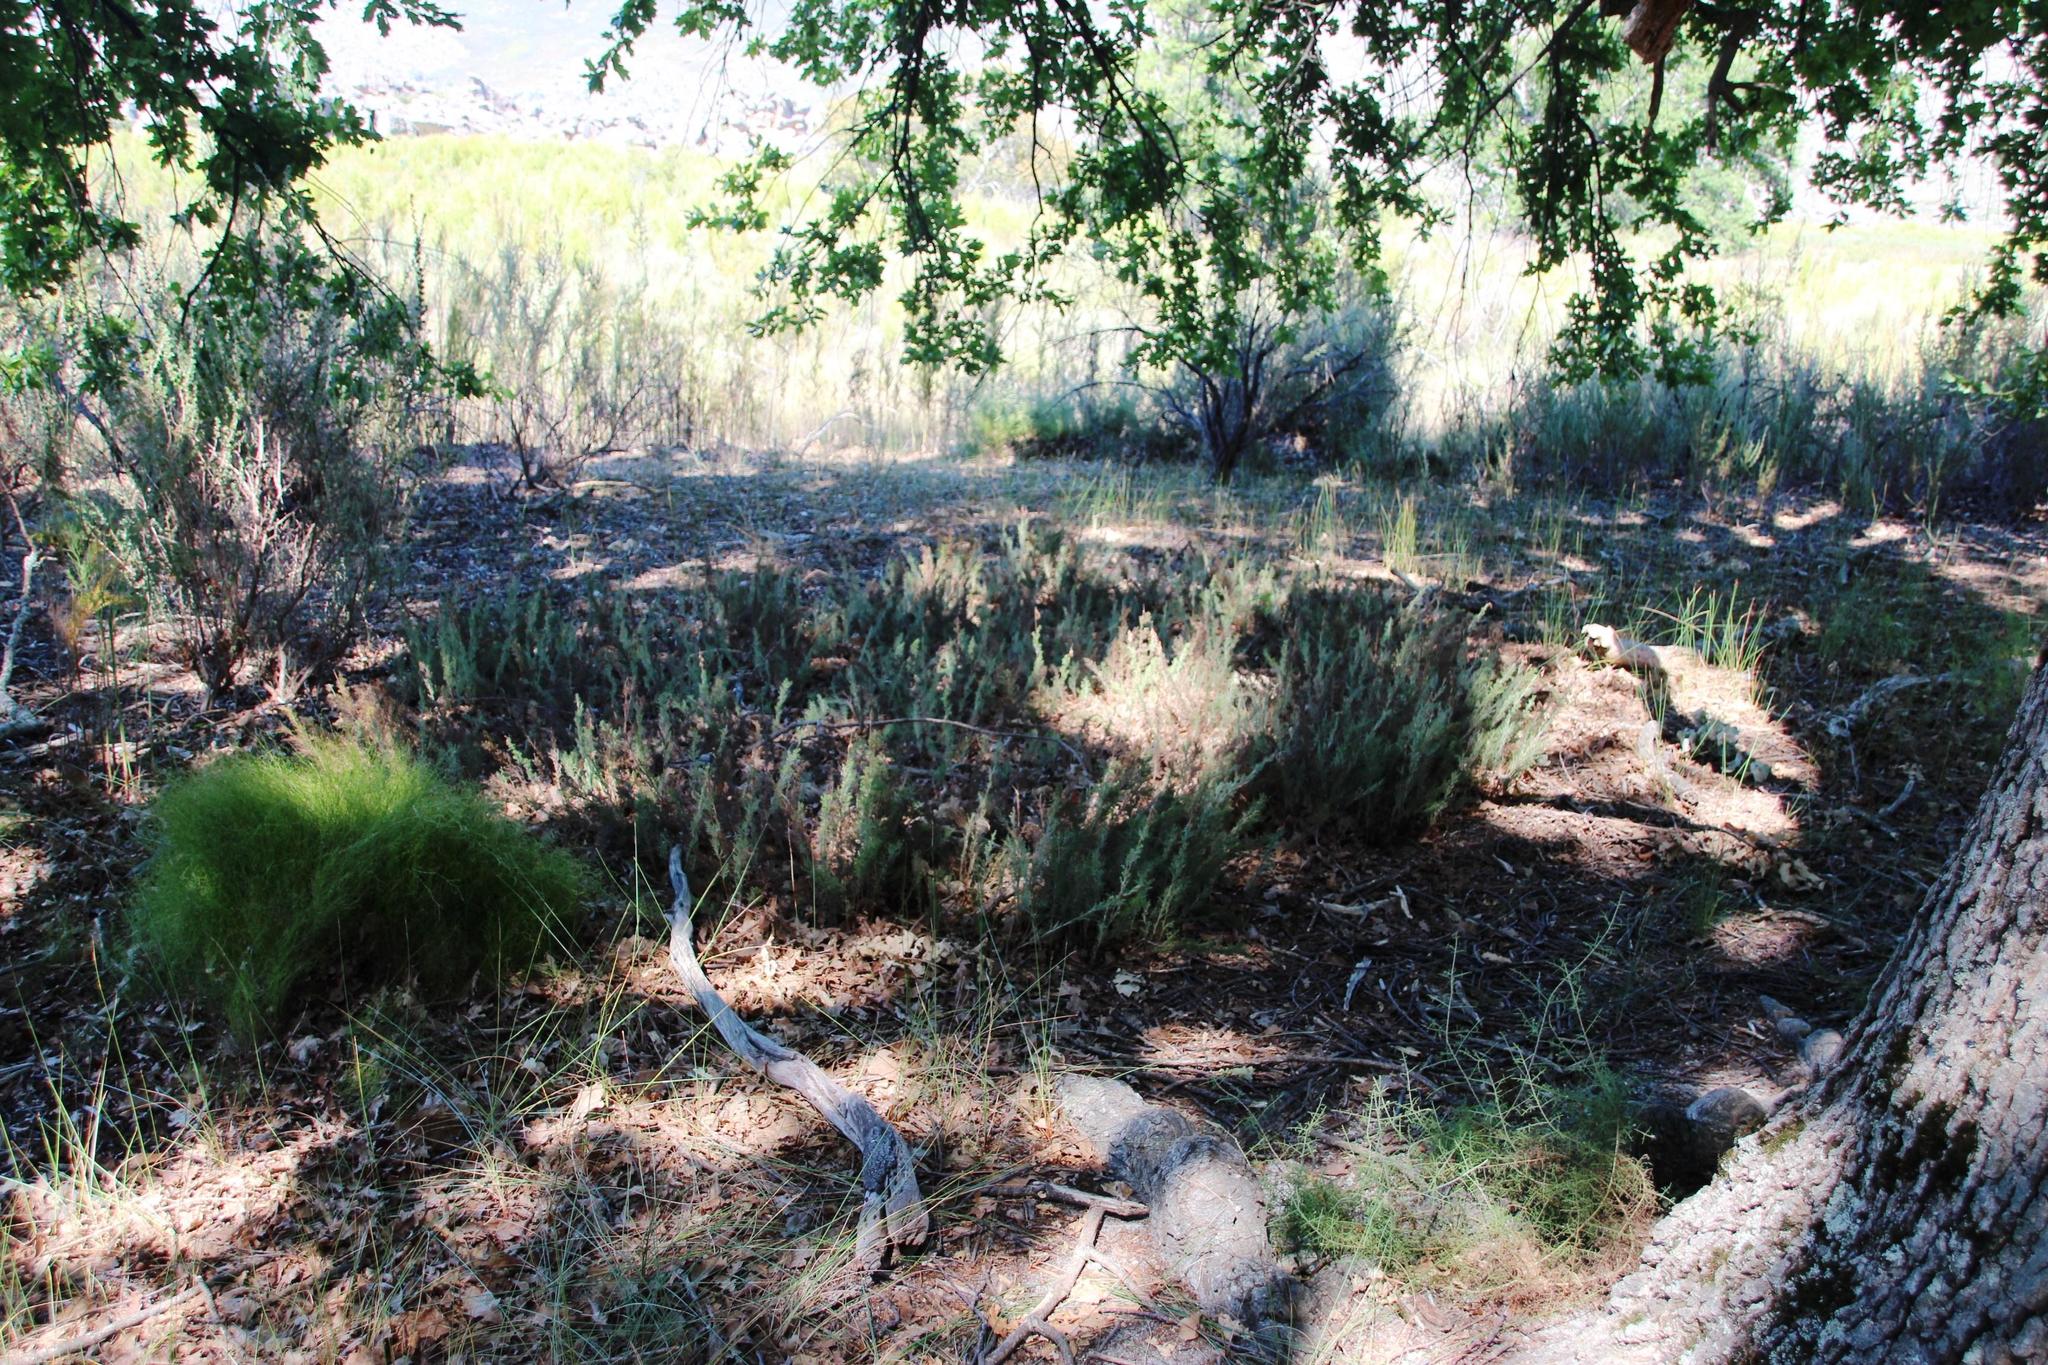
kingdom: Plantae
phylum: Tracheophyta
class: Liliopsida
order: Poales
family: Restionaceae
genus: Thamnochortus
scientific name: Thamnochortus fruticosus
